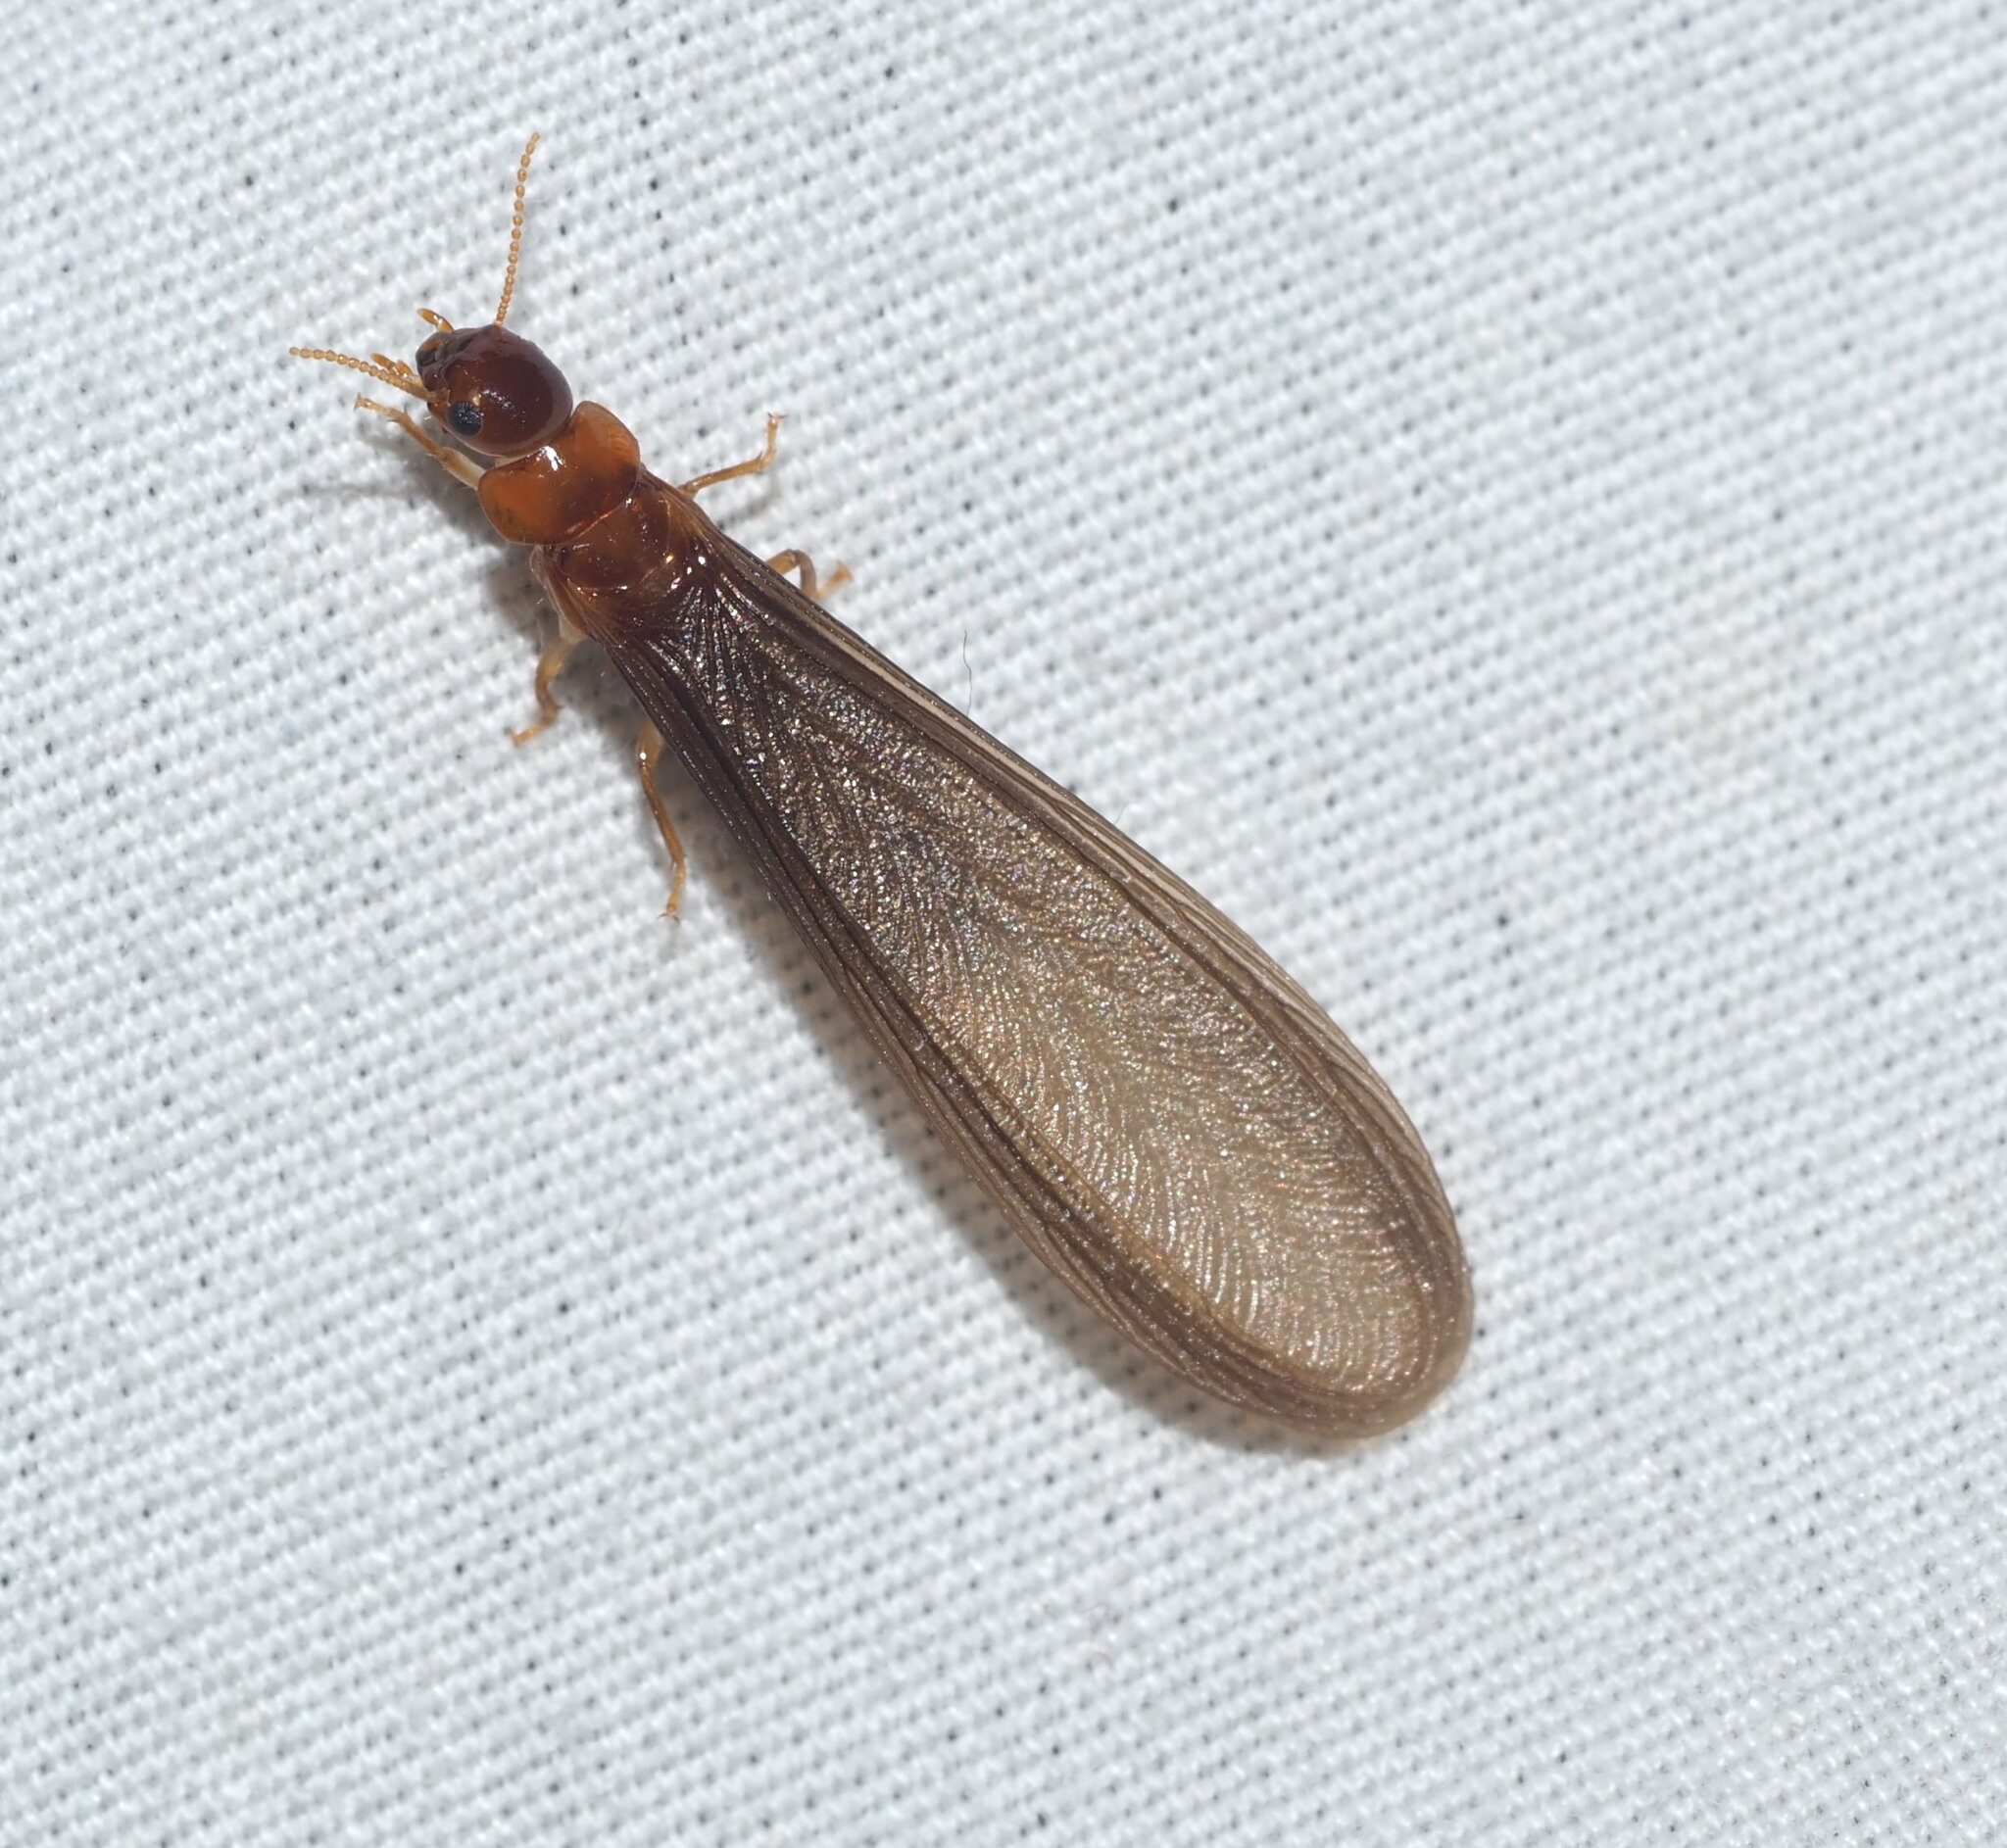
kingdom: Animalia
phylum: Arthropoda
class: Insecta
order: Blattodea
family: Kalotermitidae
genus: Neotermes
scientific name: Neotermes connexus
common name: Termite
